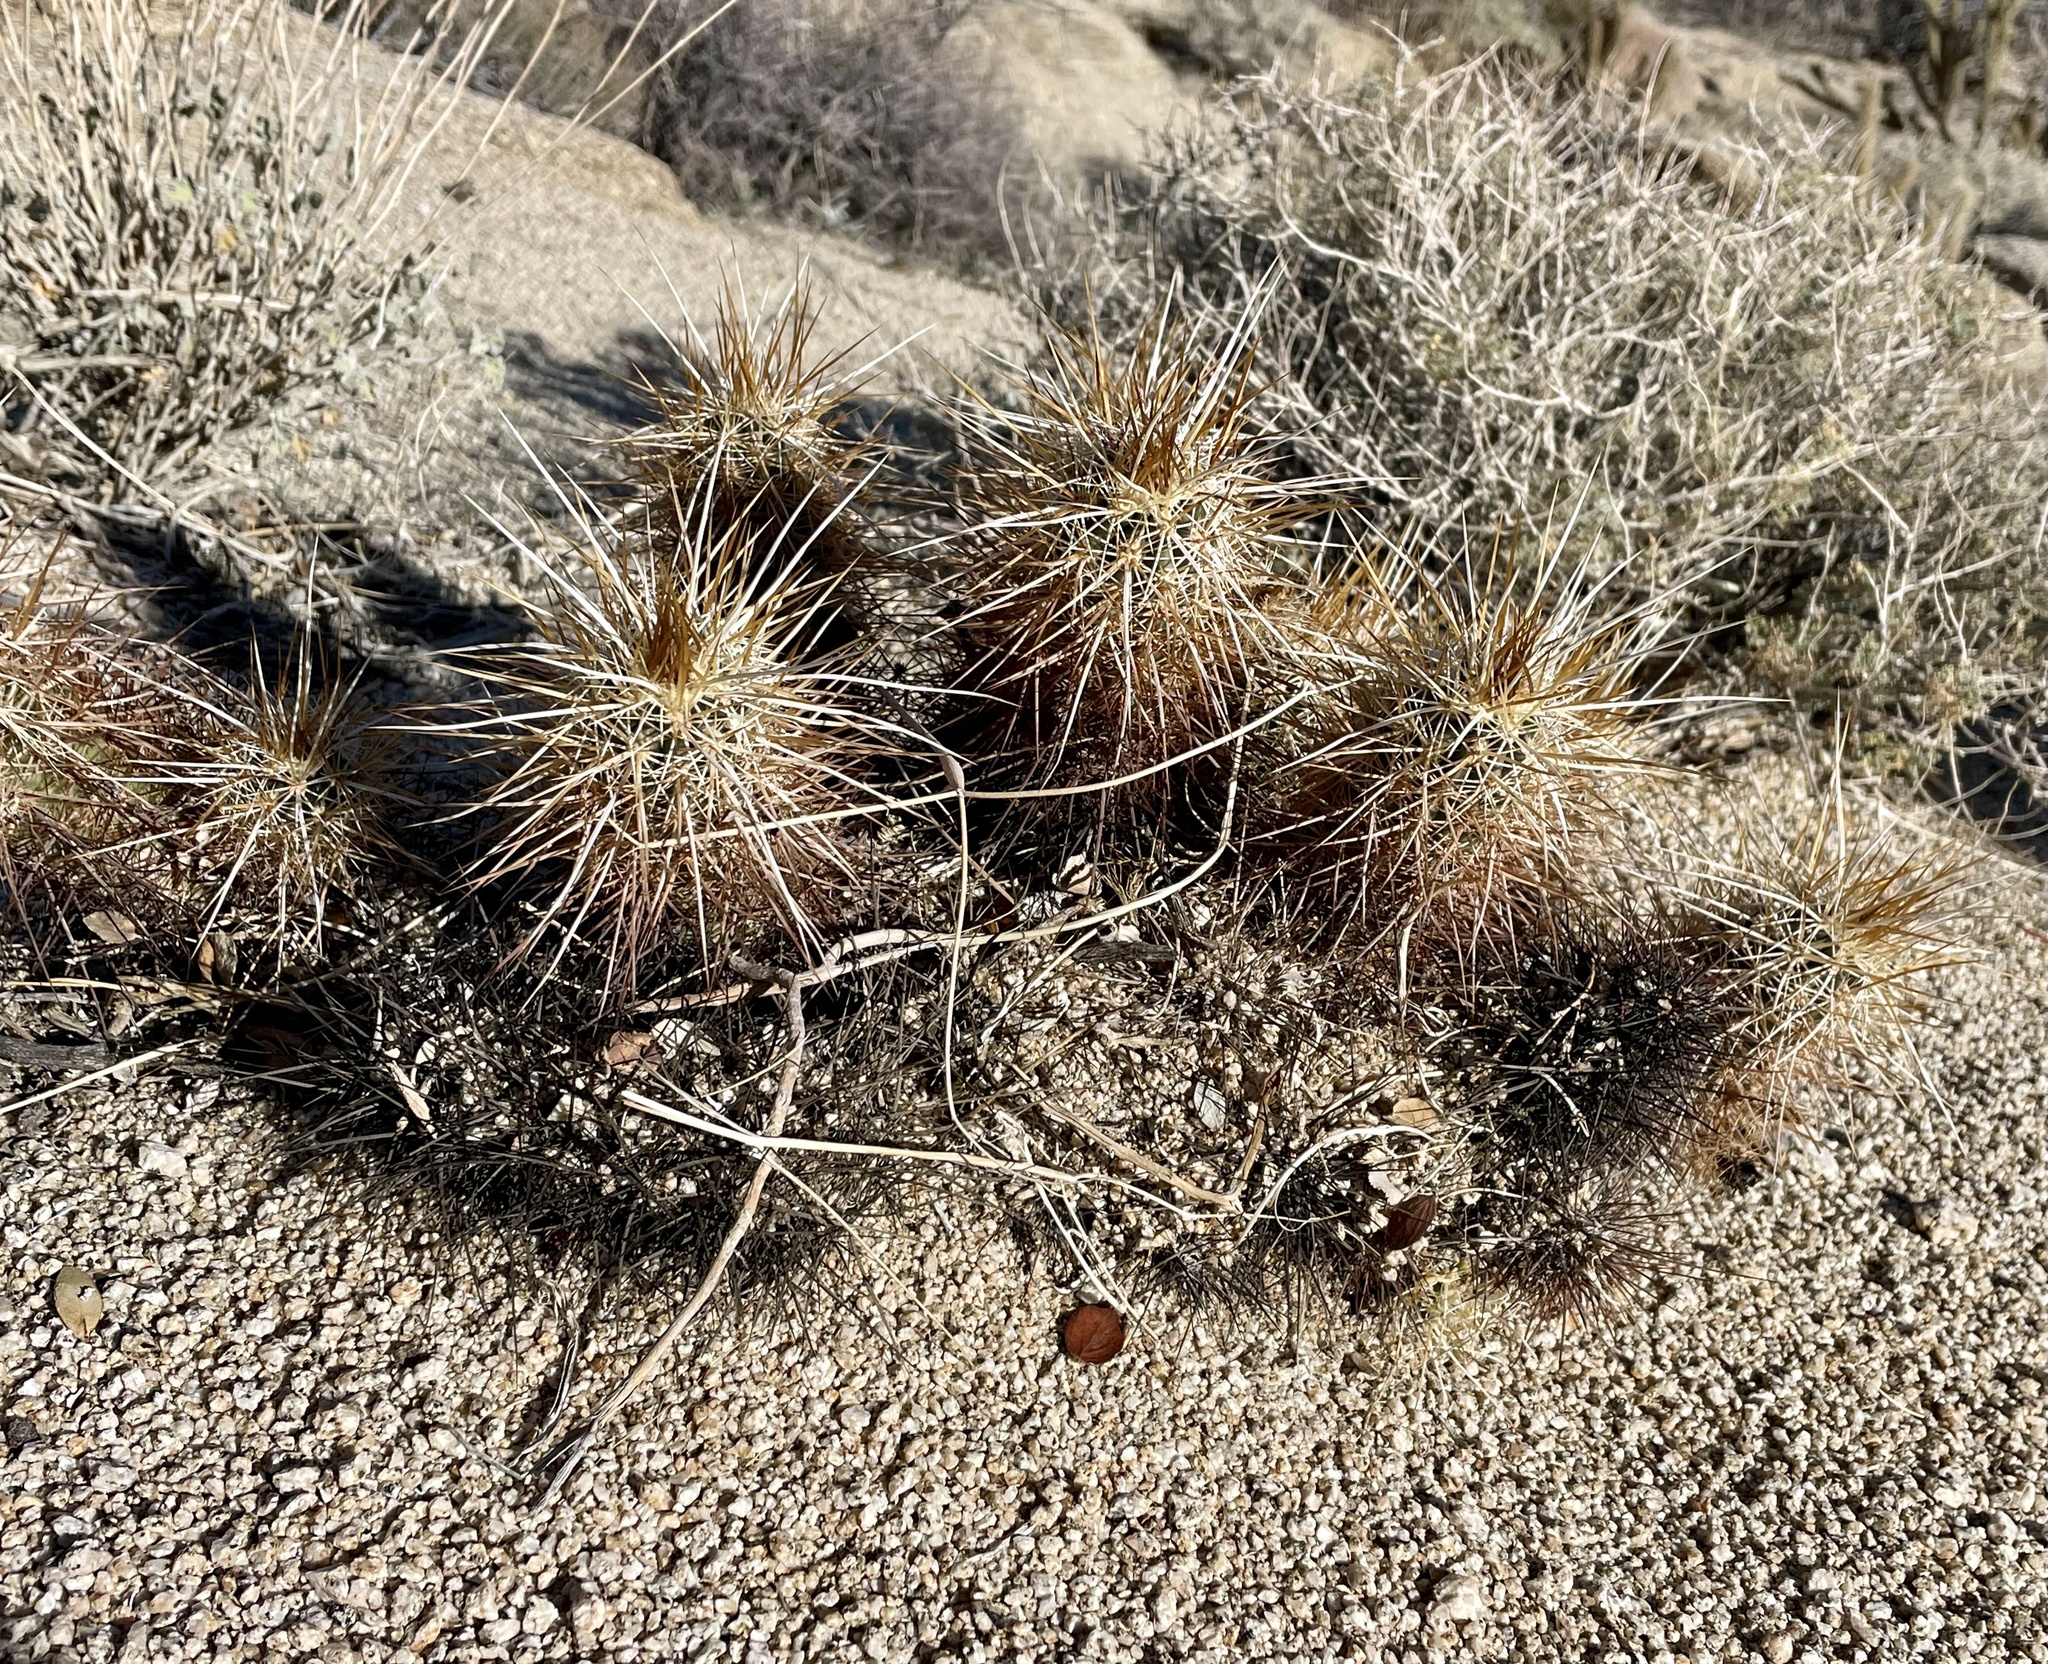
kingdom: Plantae
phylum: Tracheophyta
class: Magnoliopsida
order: Caryophyllales
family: Cactaceae
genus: Echinocereus
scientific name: Echinocereus engelmannii
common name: Engelmann's hedgehog cactus
